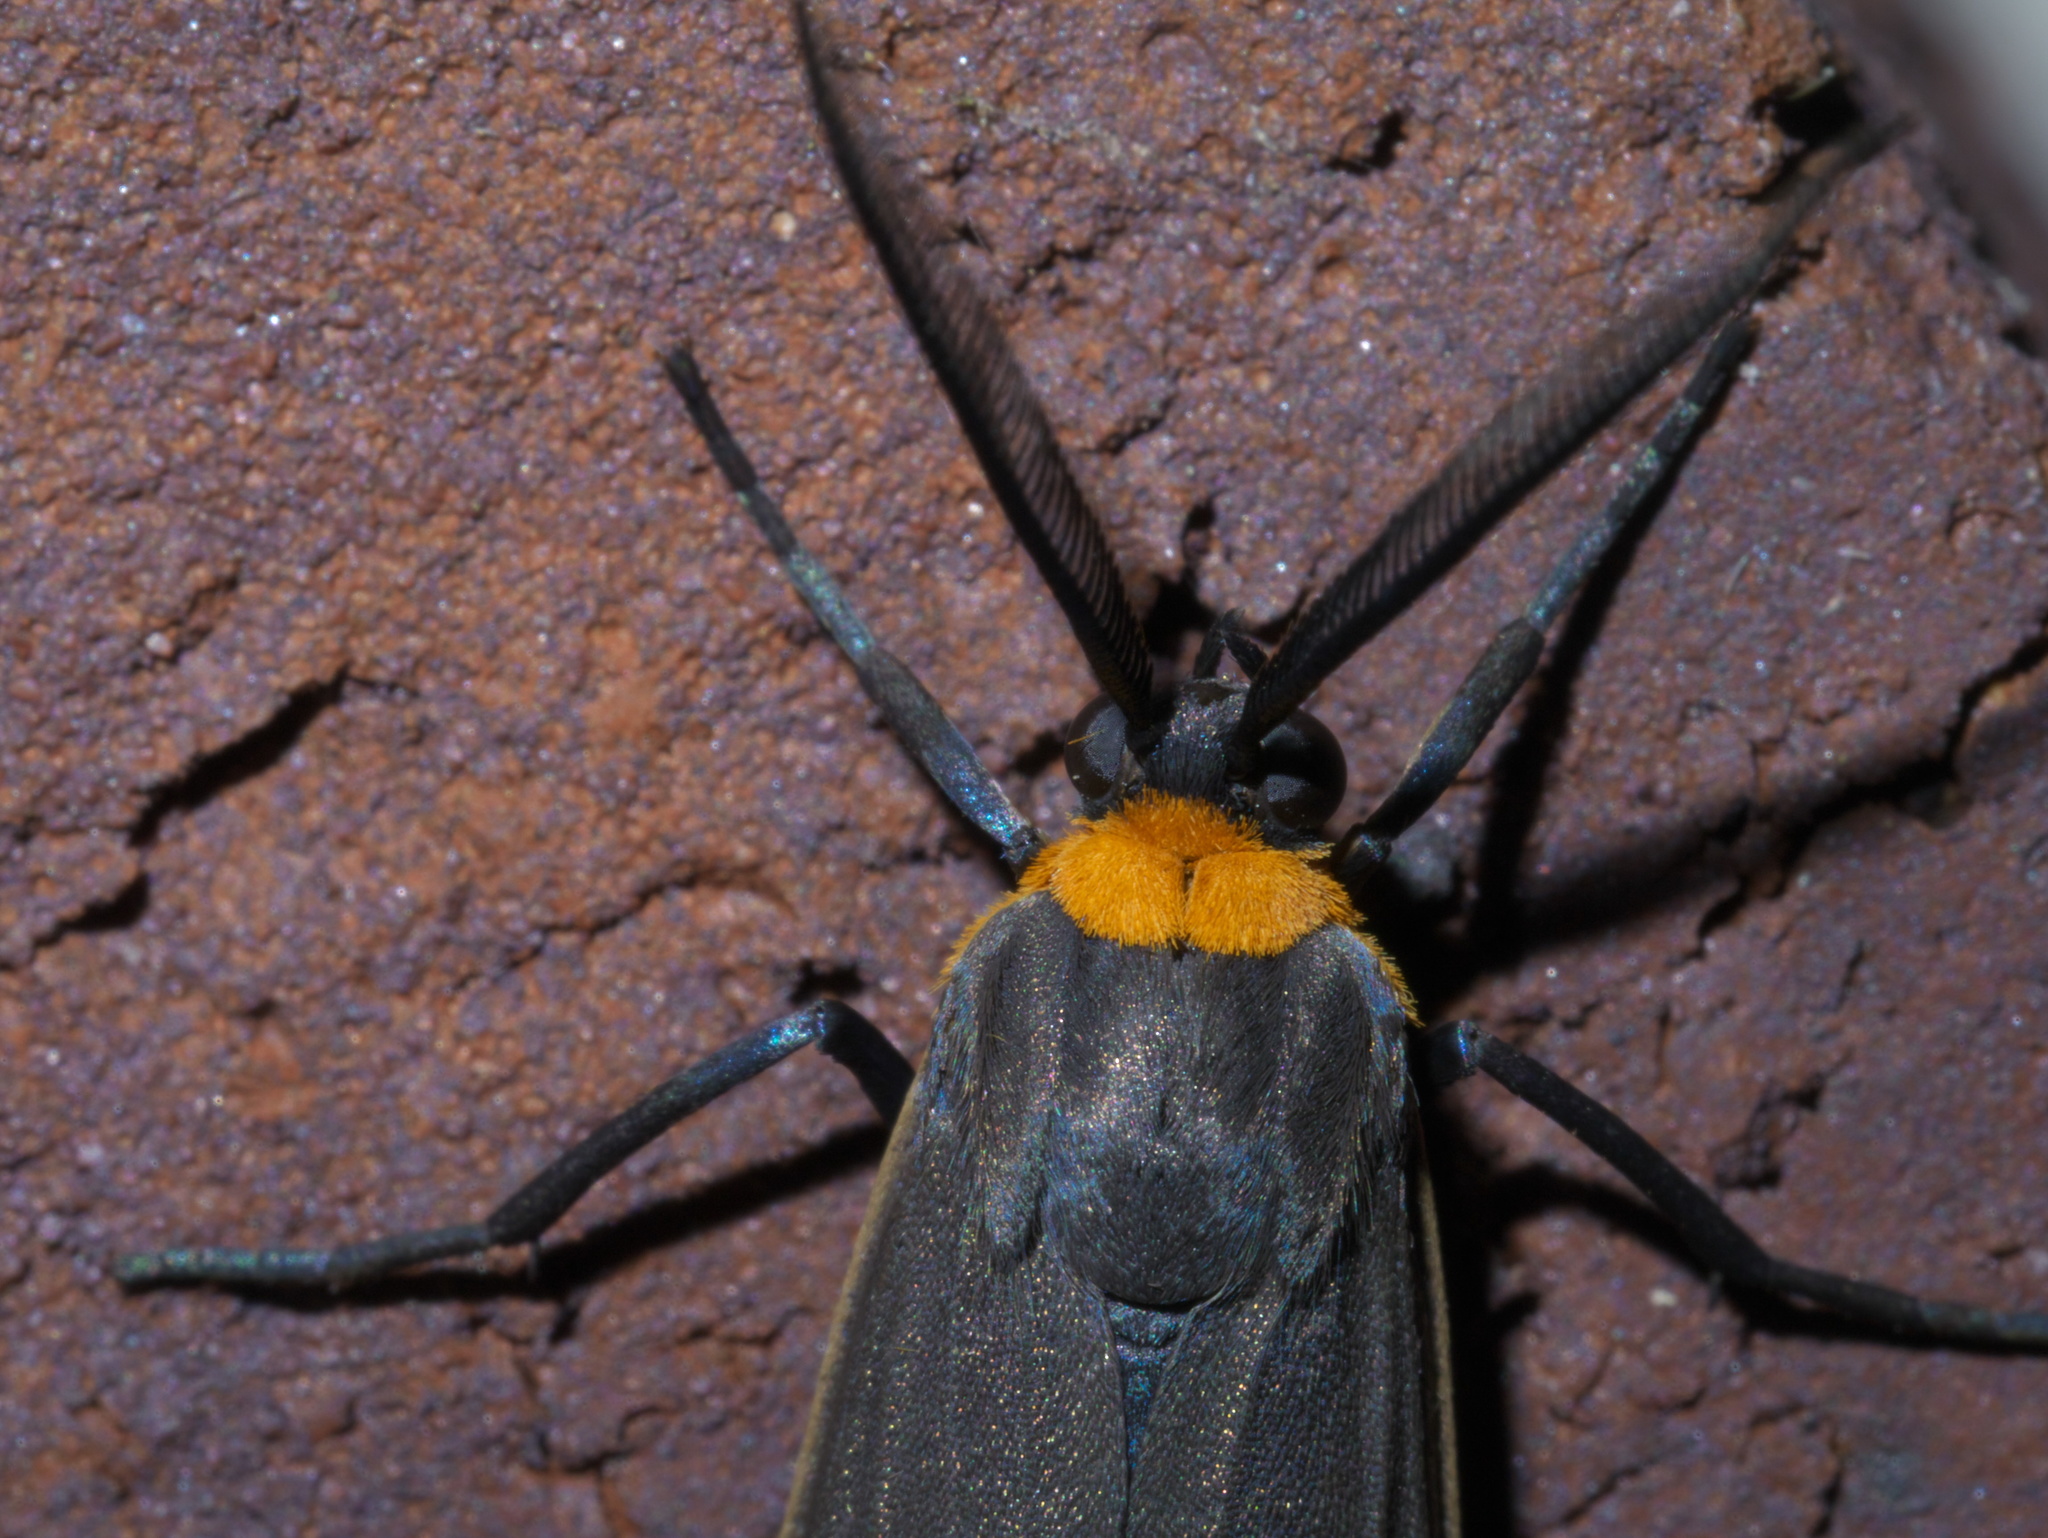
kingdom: Animalia
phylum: Arthropoda
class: Insecta
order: Lepidoptera
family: Erebidae
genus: Cisseps
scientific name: Cisseps fulvicollis
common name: Yellow-collared scape moth
